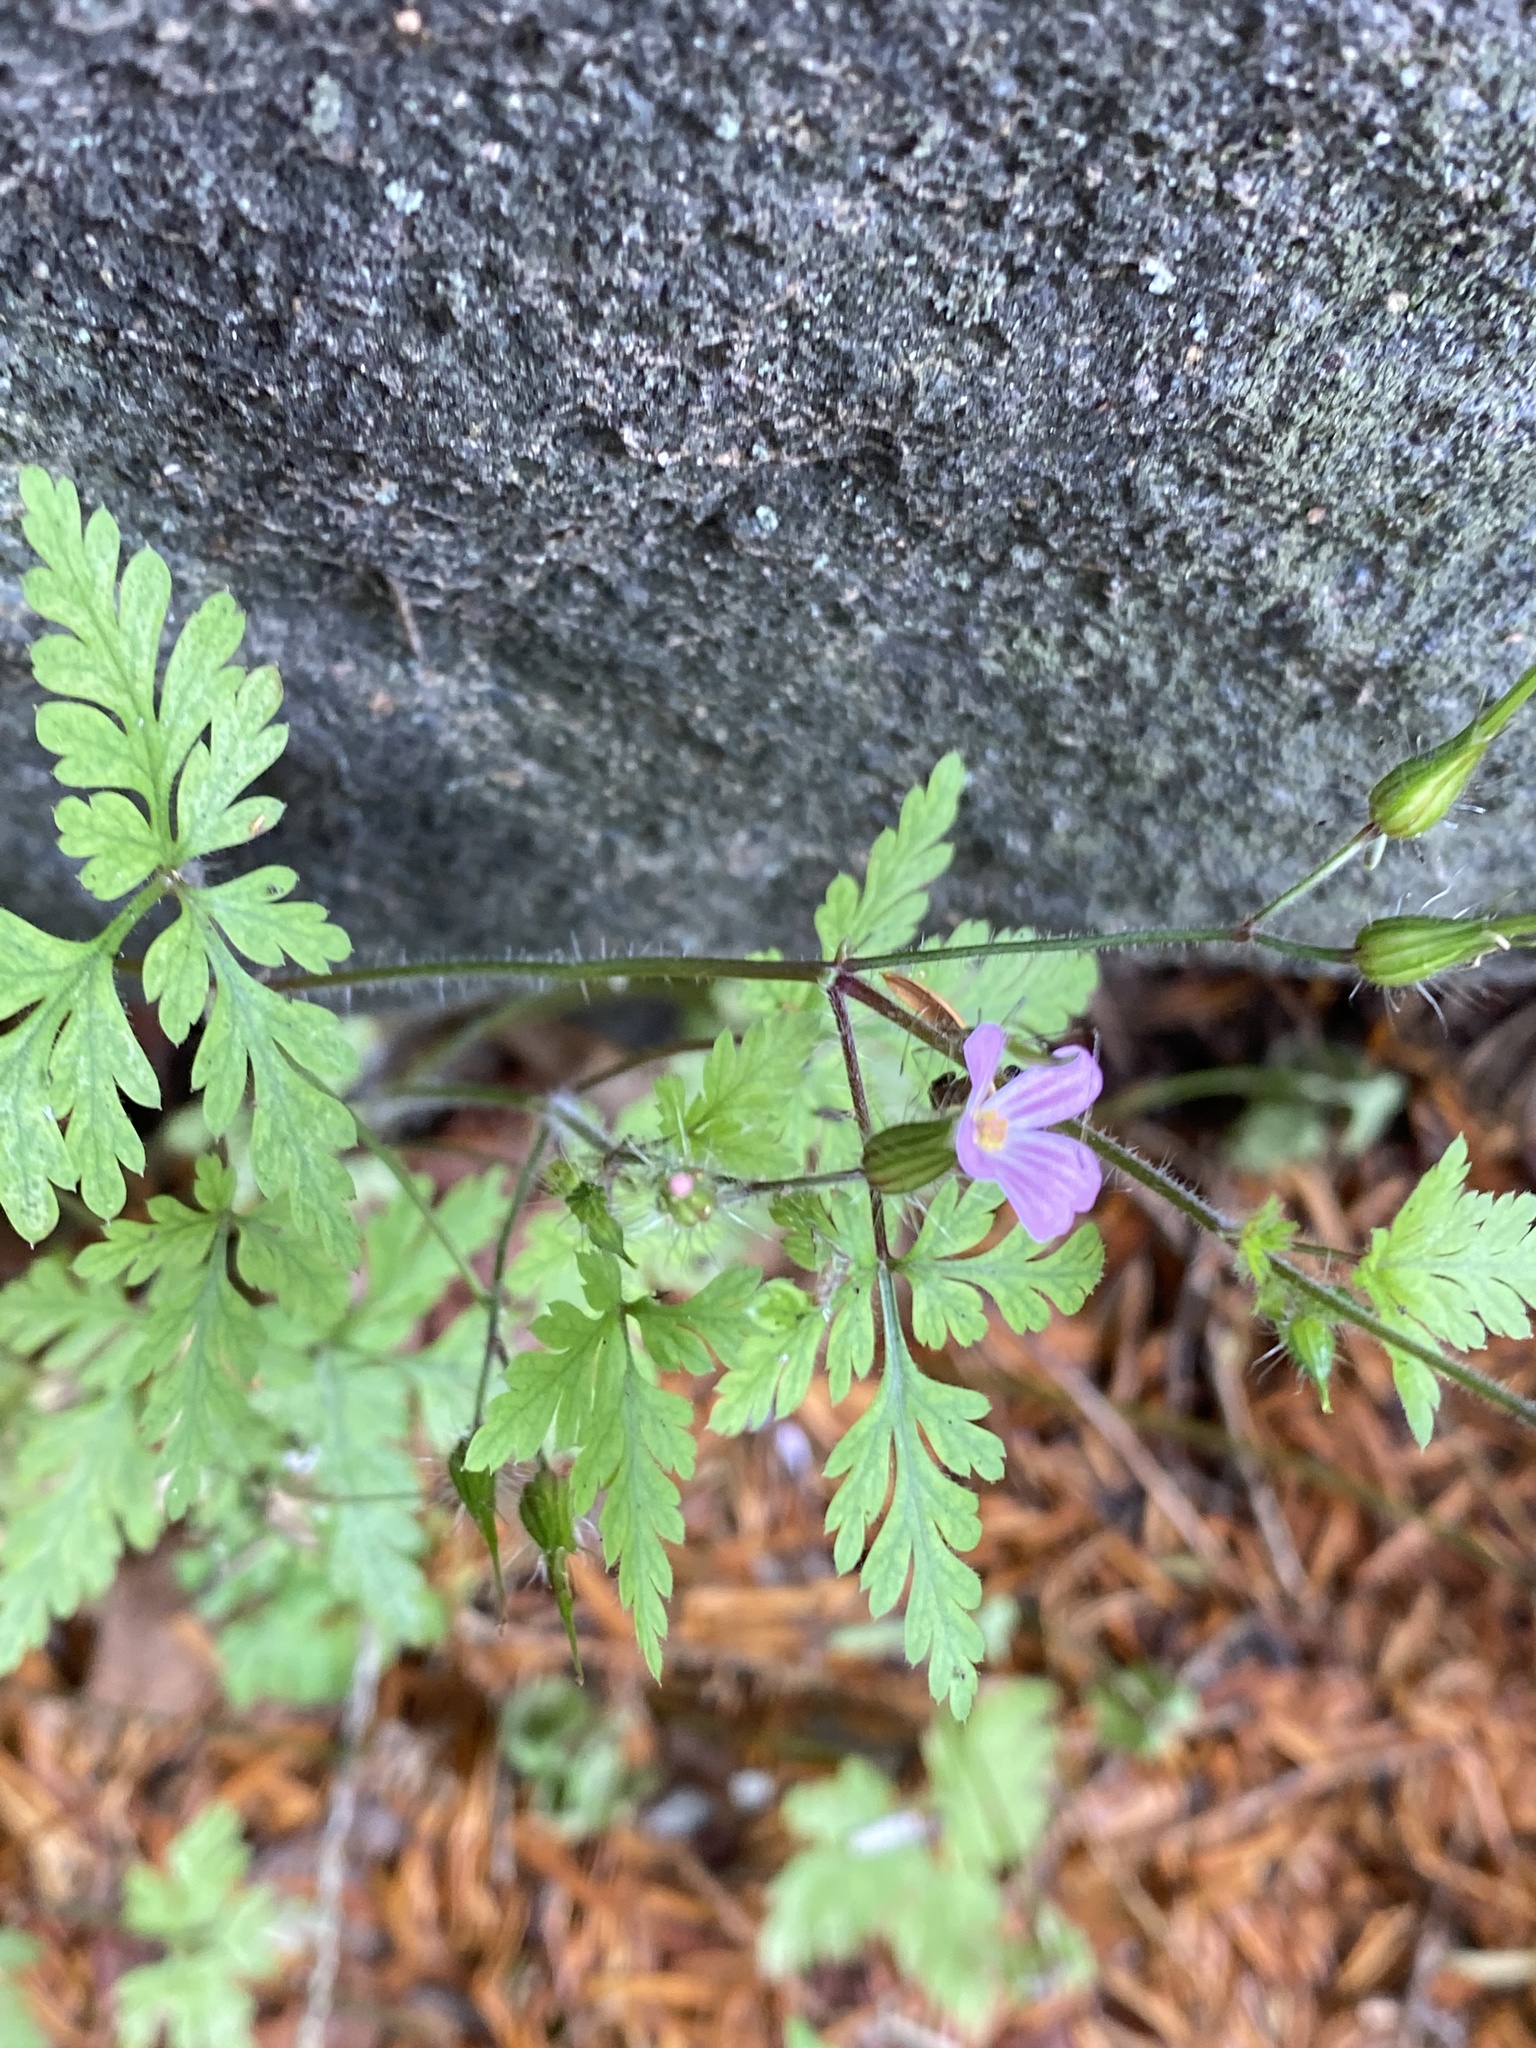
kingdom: Plantae
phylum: Tracheophyta
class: Magnoliopsida
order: Geraniales
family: Geraniaceae
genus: Geranium
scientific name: Geranium robertianum
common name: Herb-robert
